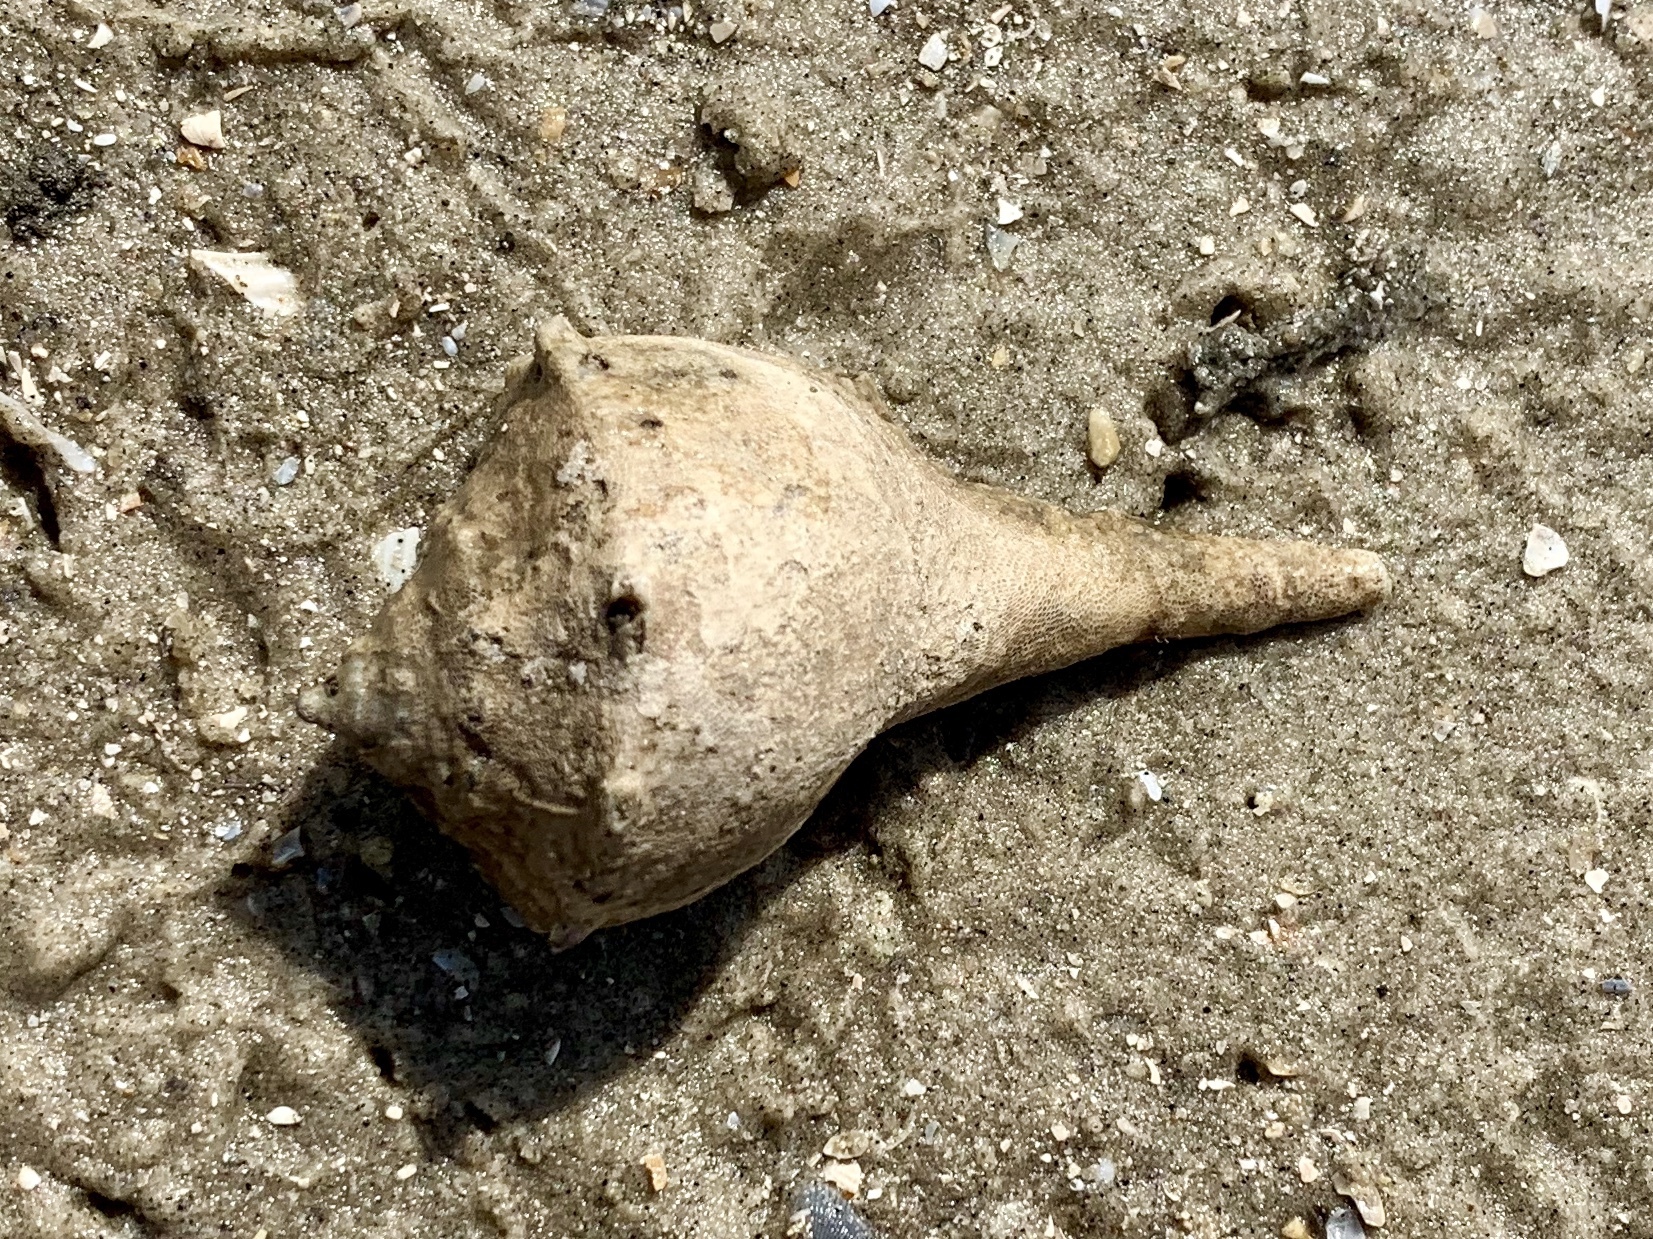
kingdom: Animalia
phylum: Mollusca
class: Gastropoda
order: Neogastropoda
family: Busyconidae
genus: Sinistrofulgur
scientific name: Sinistrofulgur pulleyi
